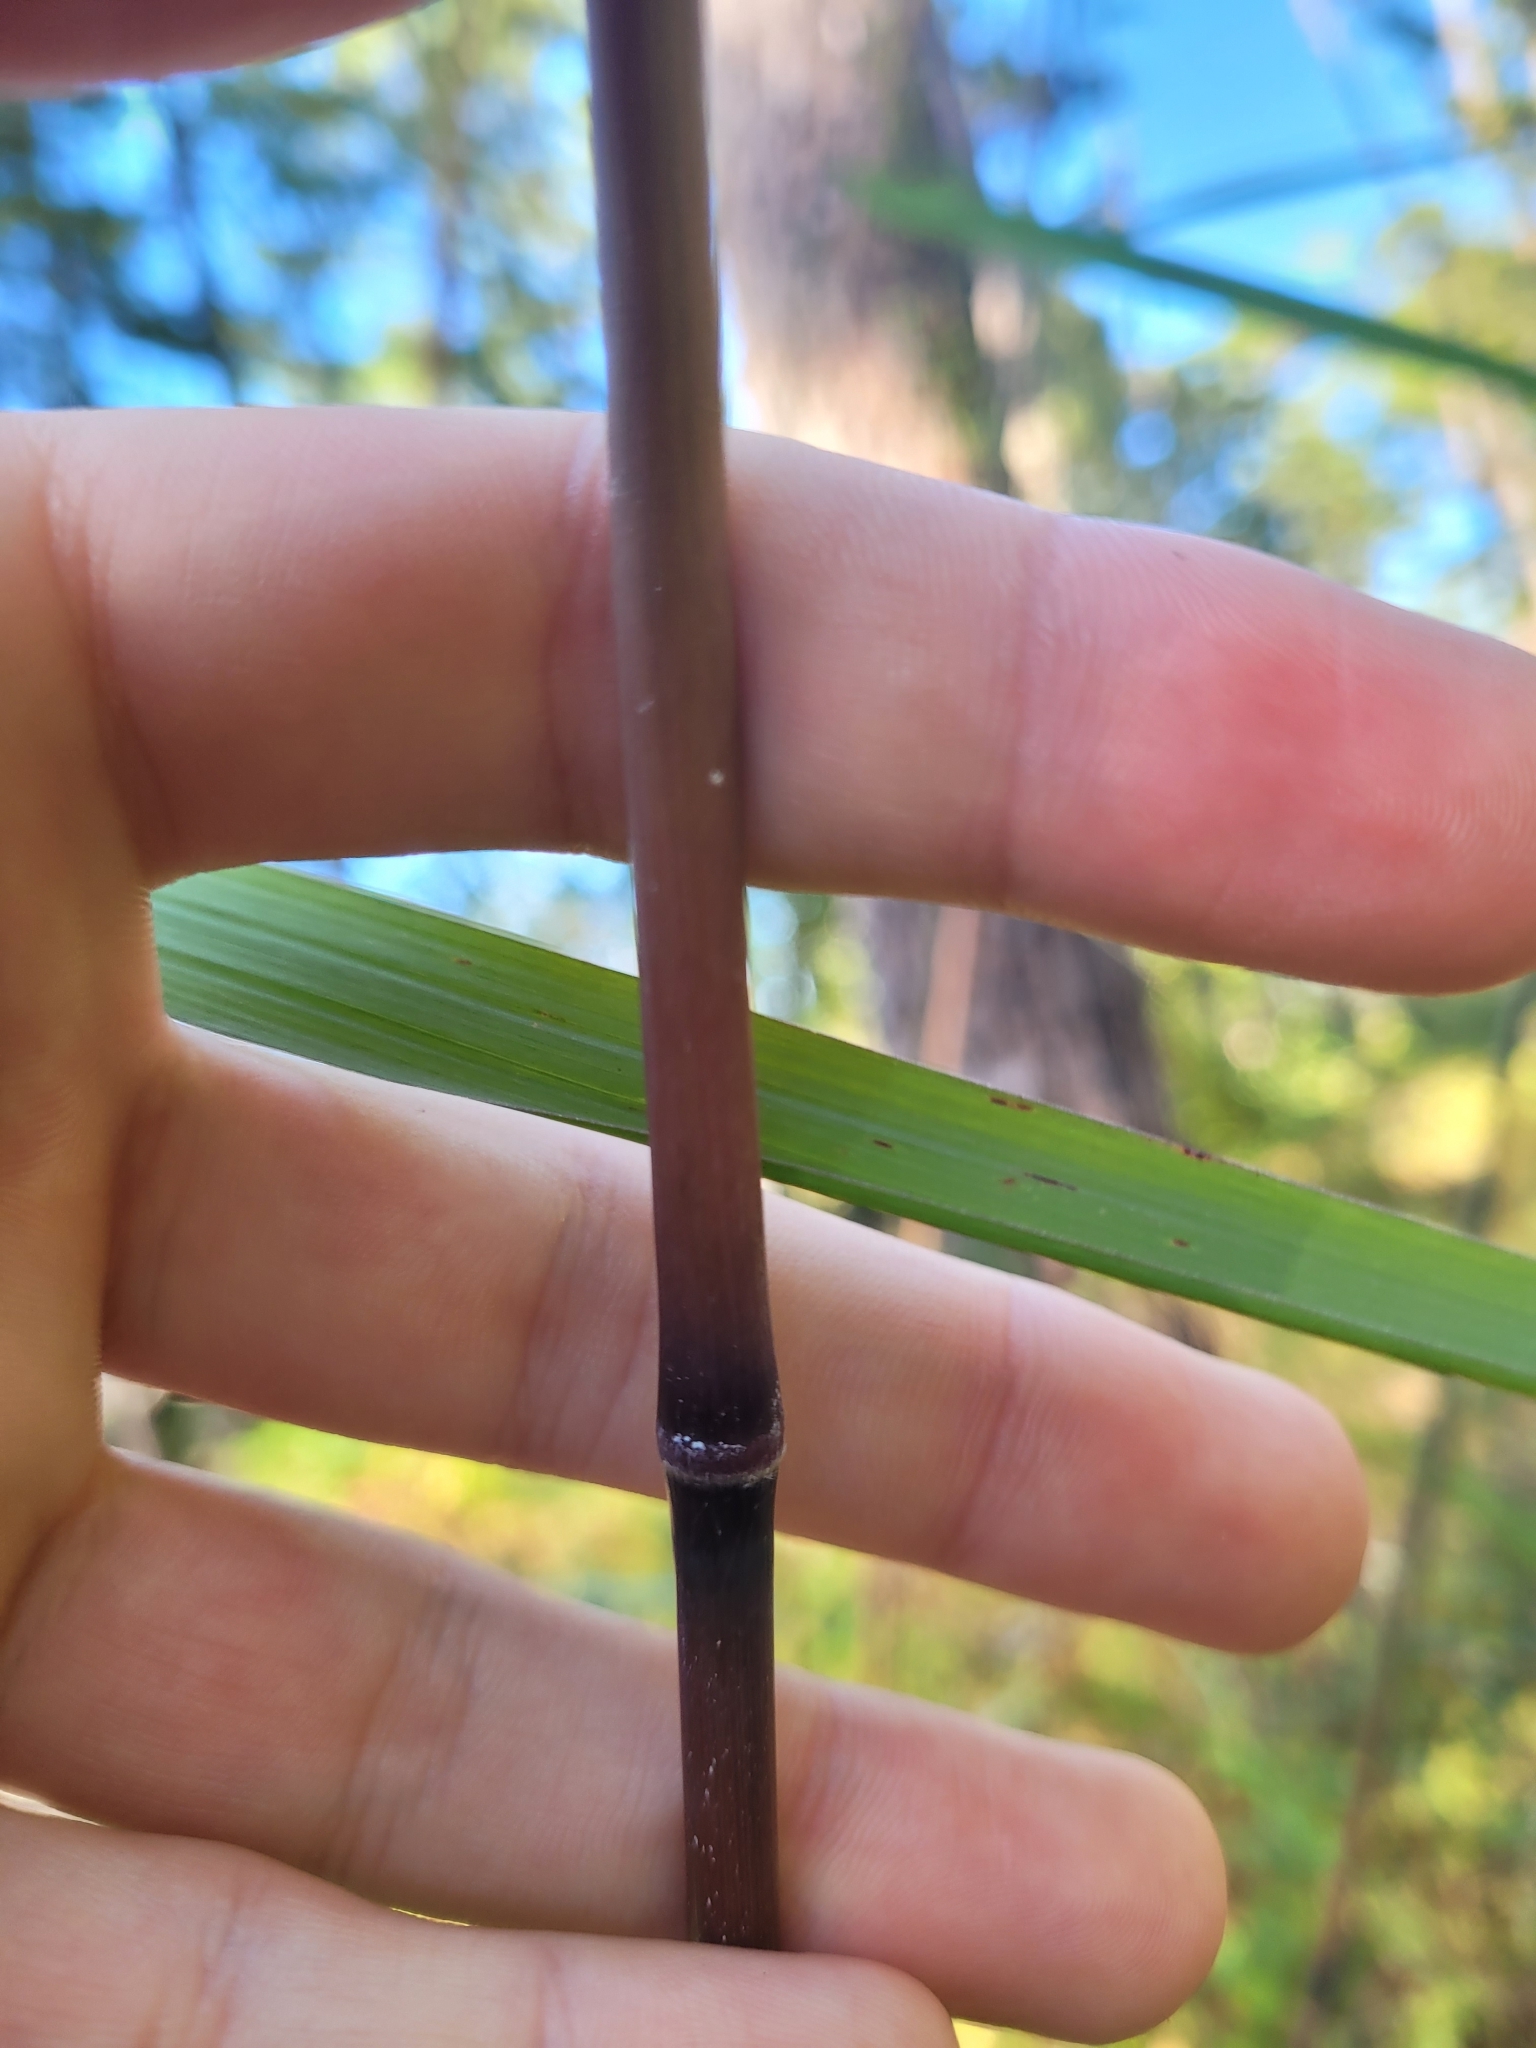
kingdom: Plantae
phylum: Tracheophyta
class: Liliopsida
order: Poales
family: Poaceae
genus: Erianthus
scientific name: Erianthus giganteus
